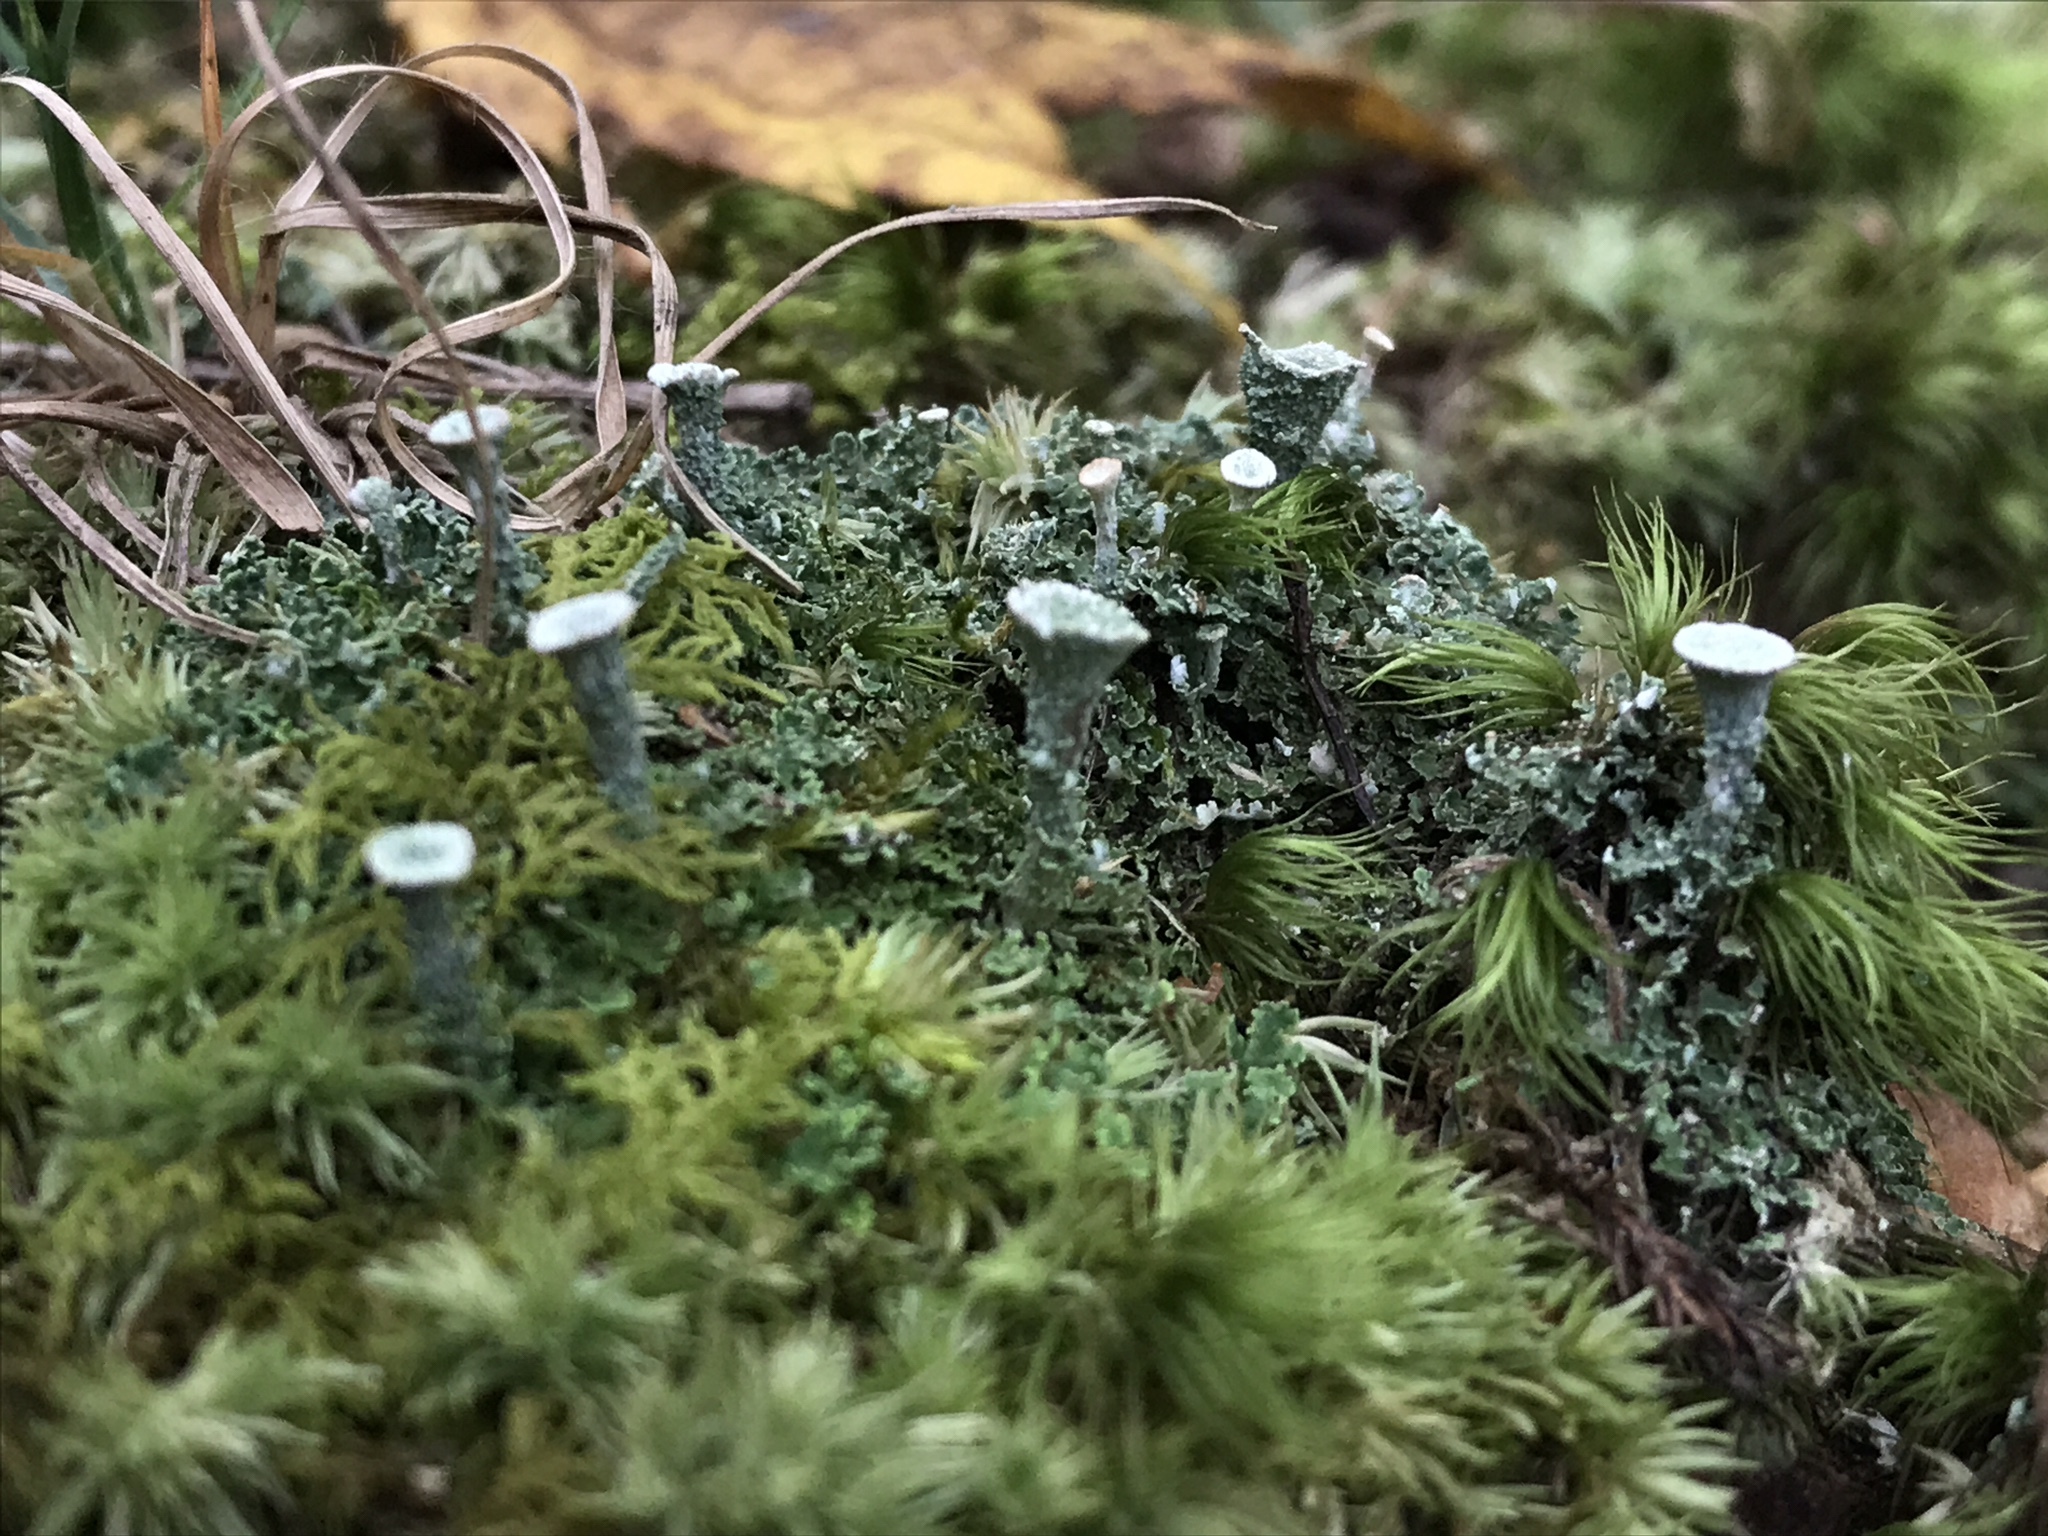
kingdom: Fungi
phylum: Ascomycota
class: Lecanoromycetes
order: Lecanorales
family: Cladoniaceae
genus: Cladonia
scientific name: Cladonia pyxidata
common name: Pebbled pixie cup
